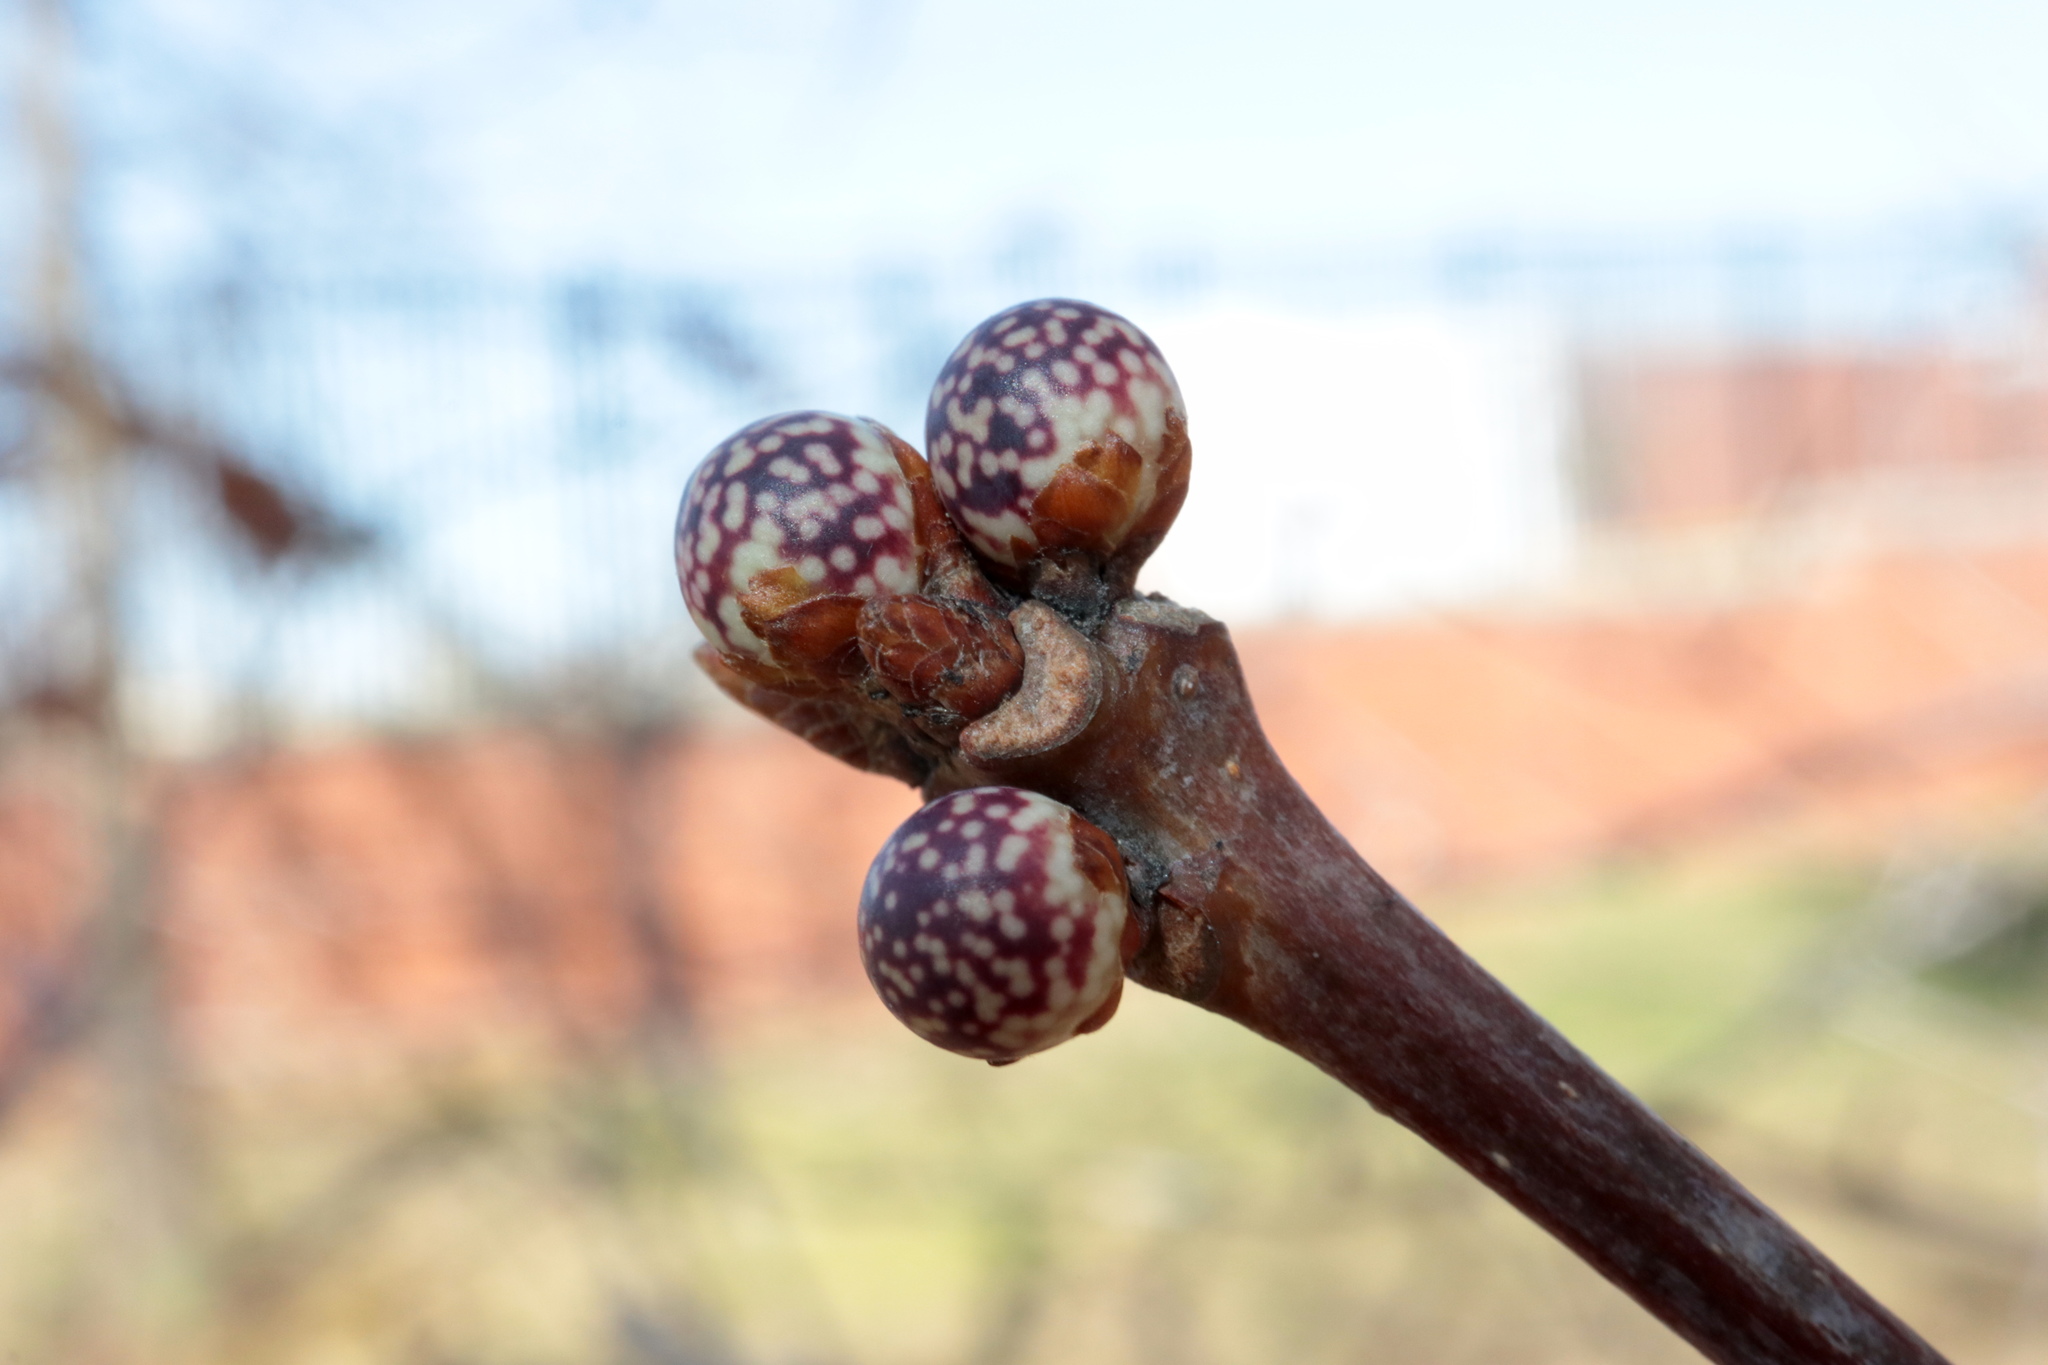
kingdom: Animalia
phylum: Arthropoda
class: Insecta
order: Hymenoptera
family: Cynipidae
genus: Andricus
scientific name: Andricus
